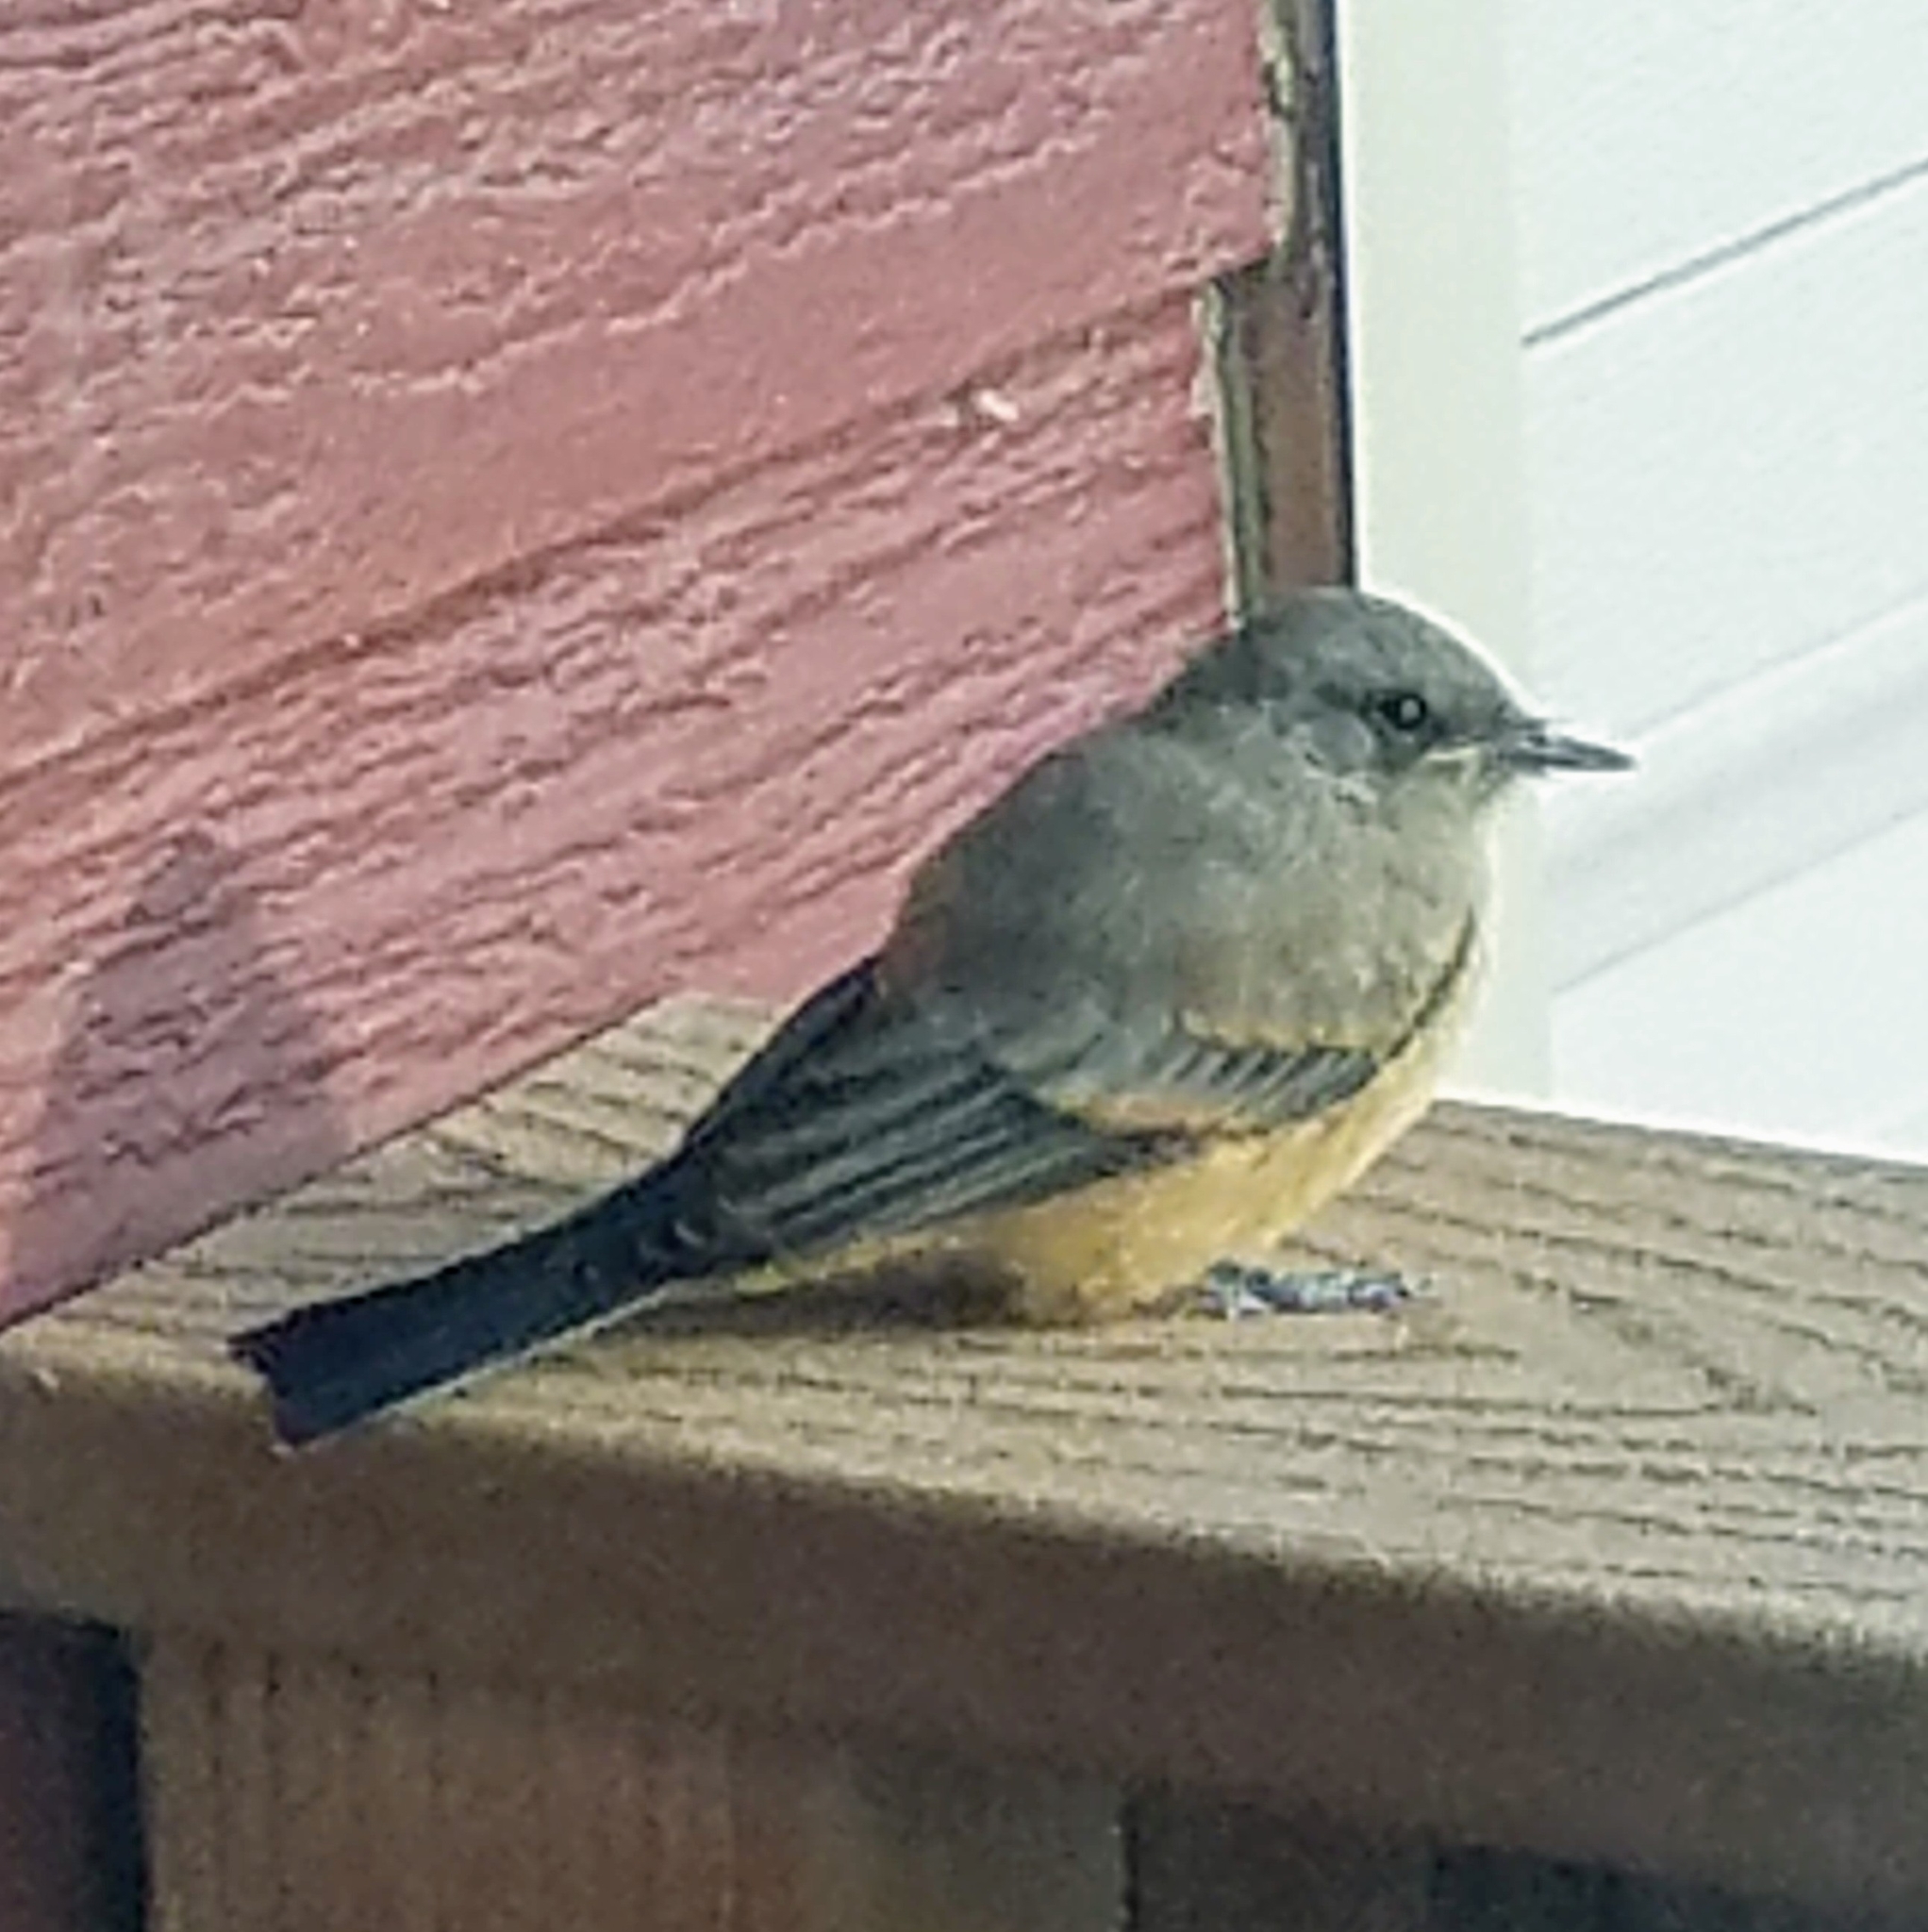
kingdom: Animalia
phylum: Chordata
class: Aves
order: Passeriformes
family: Tyrannidae
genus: Sayornis
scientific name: Sayornis saya
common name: Say's phoebe
